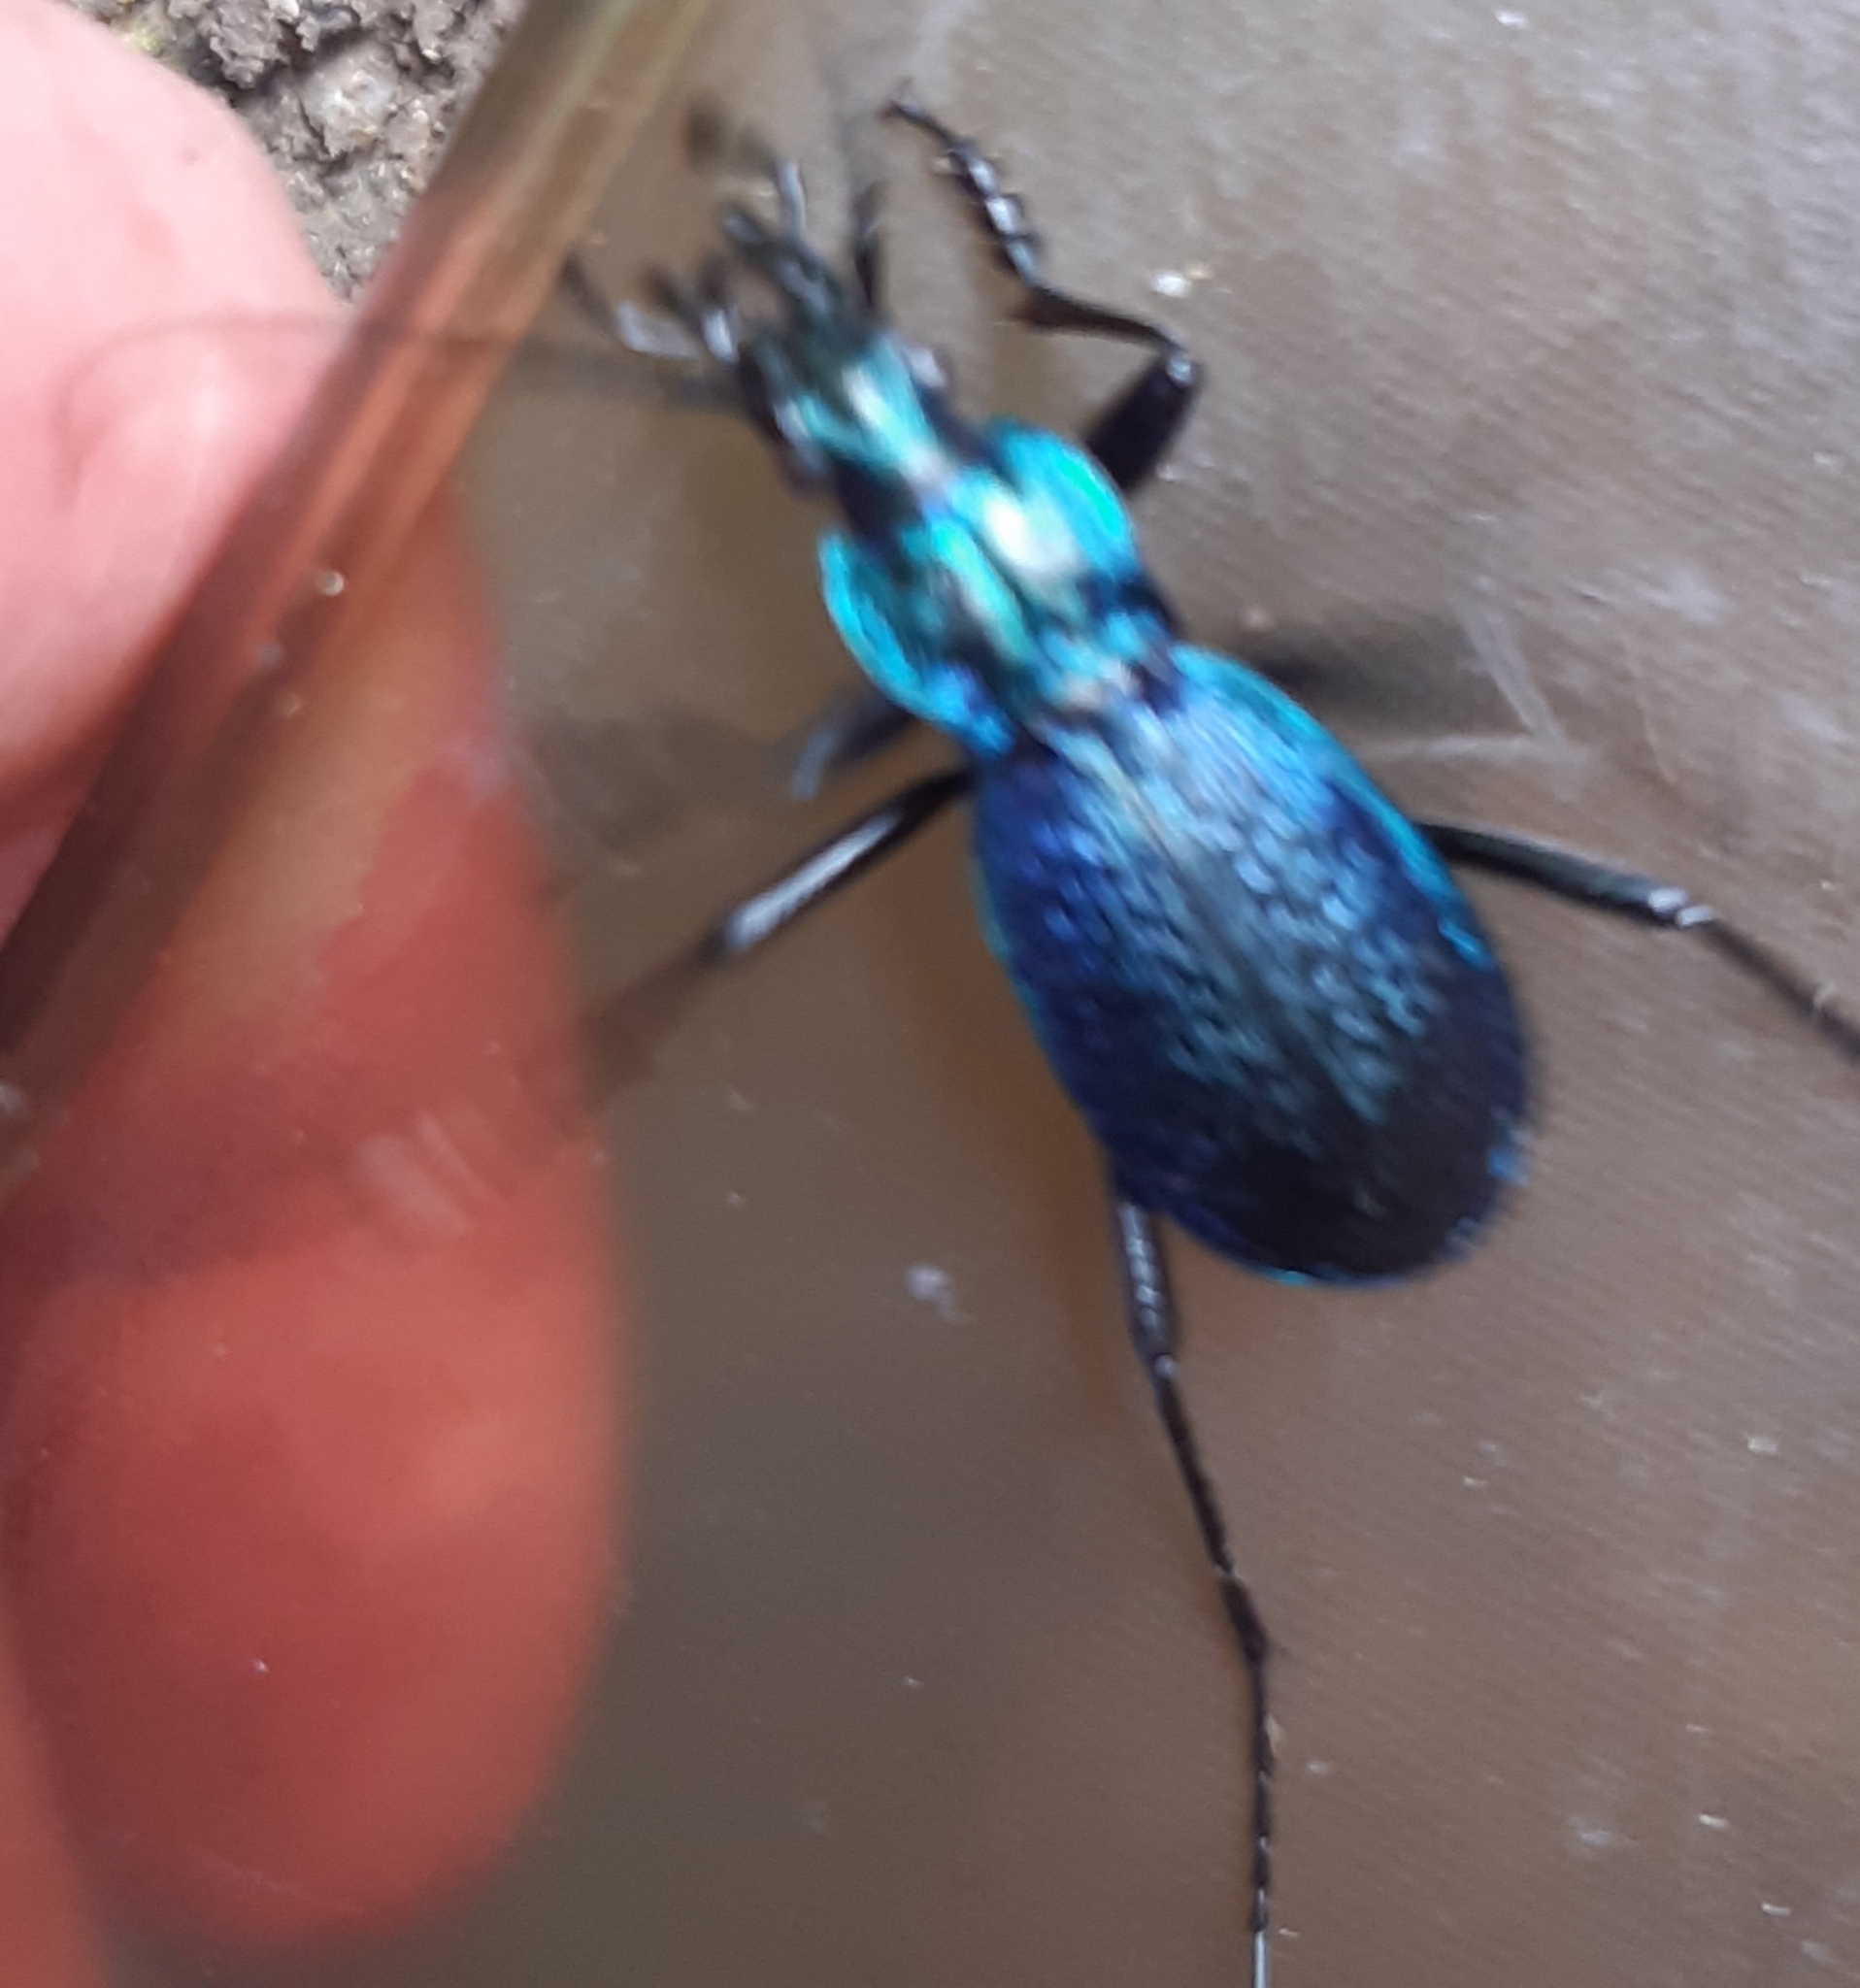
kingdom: Animalia
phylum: Arthropoda
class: Insecta
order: Coleoptera
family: Carabidae
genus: Carabus
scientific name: Carabus intricatus
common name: Blue ground beetle
